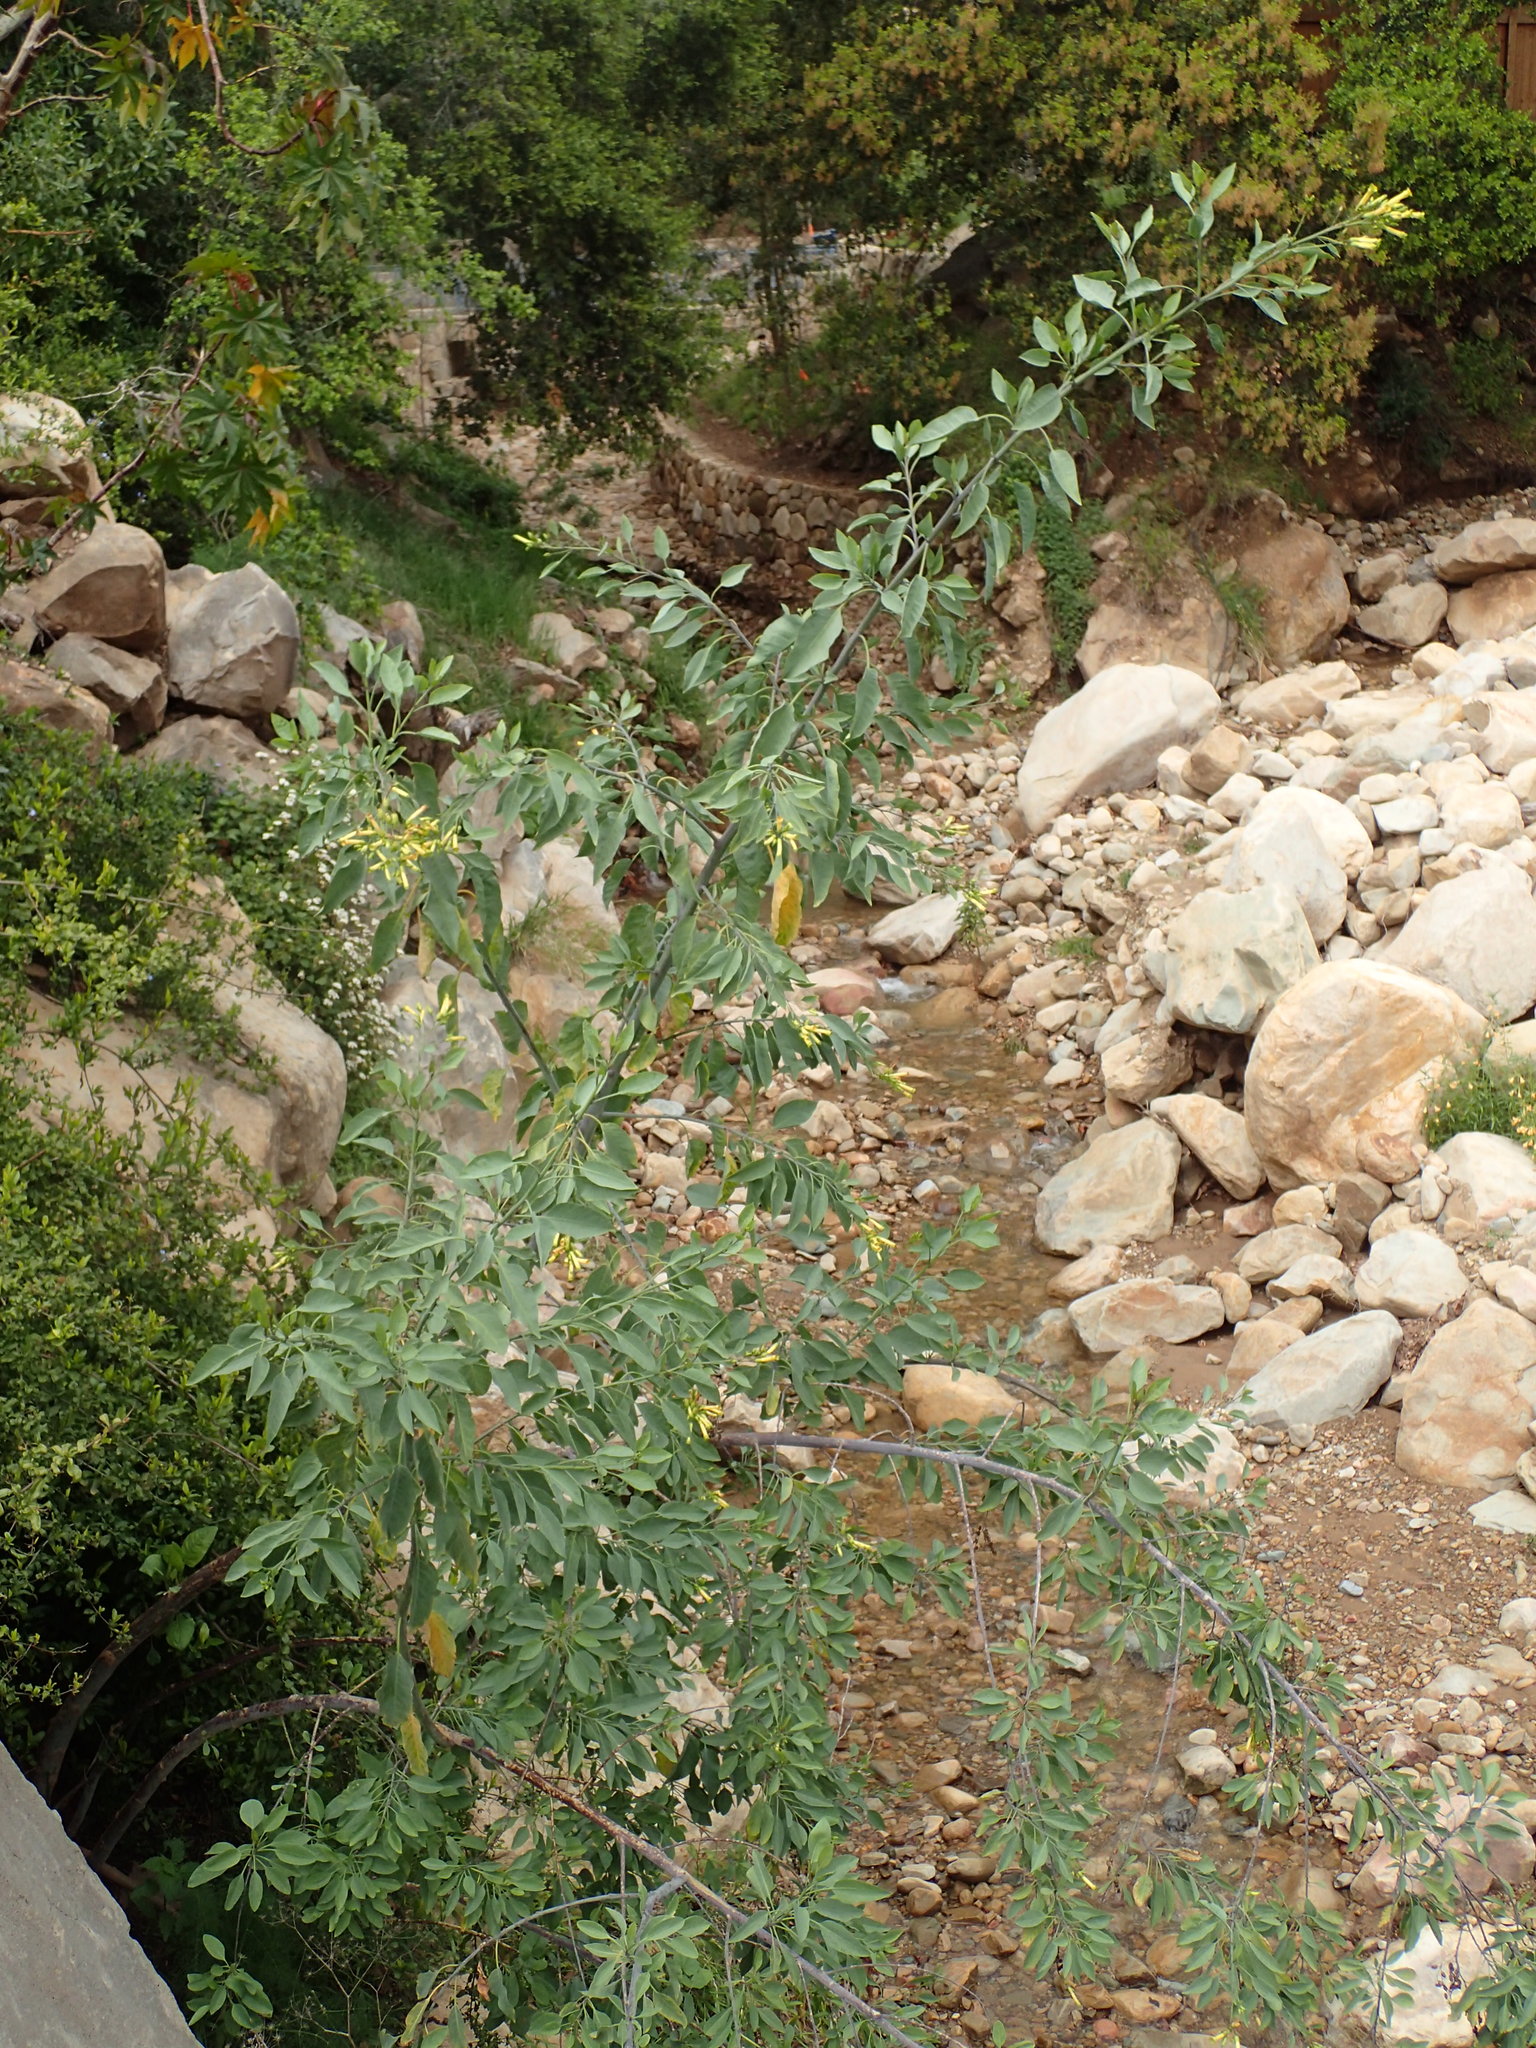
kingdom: Plantae
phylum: Tracheophyta
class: Magnoliopsida
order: Solanales
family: Solanaceae
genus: Nicotiana
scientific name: Nicotiana glauca
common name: Tree tobacco
